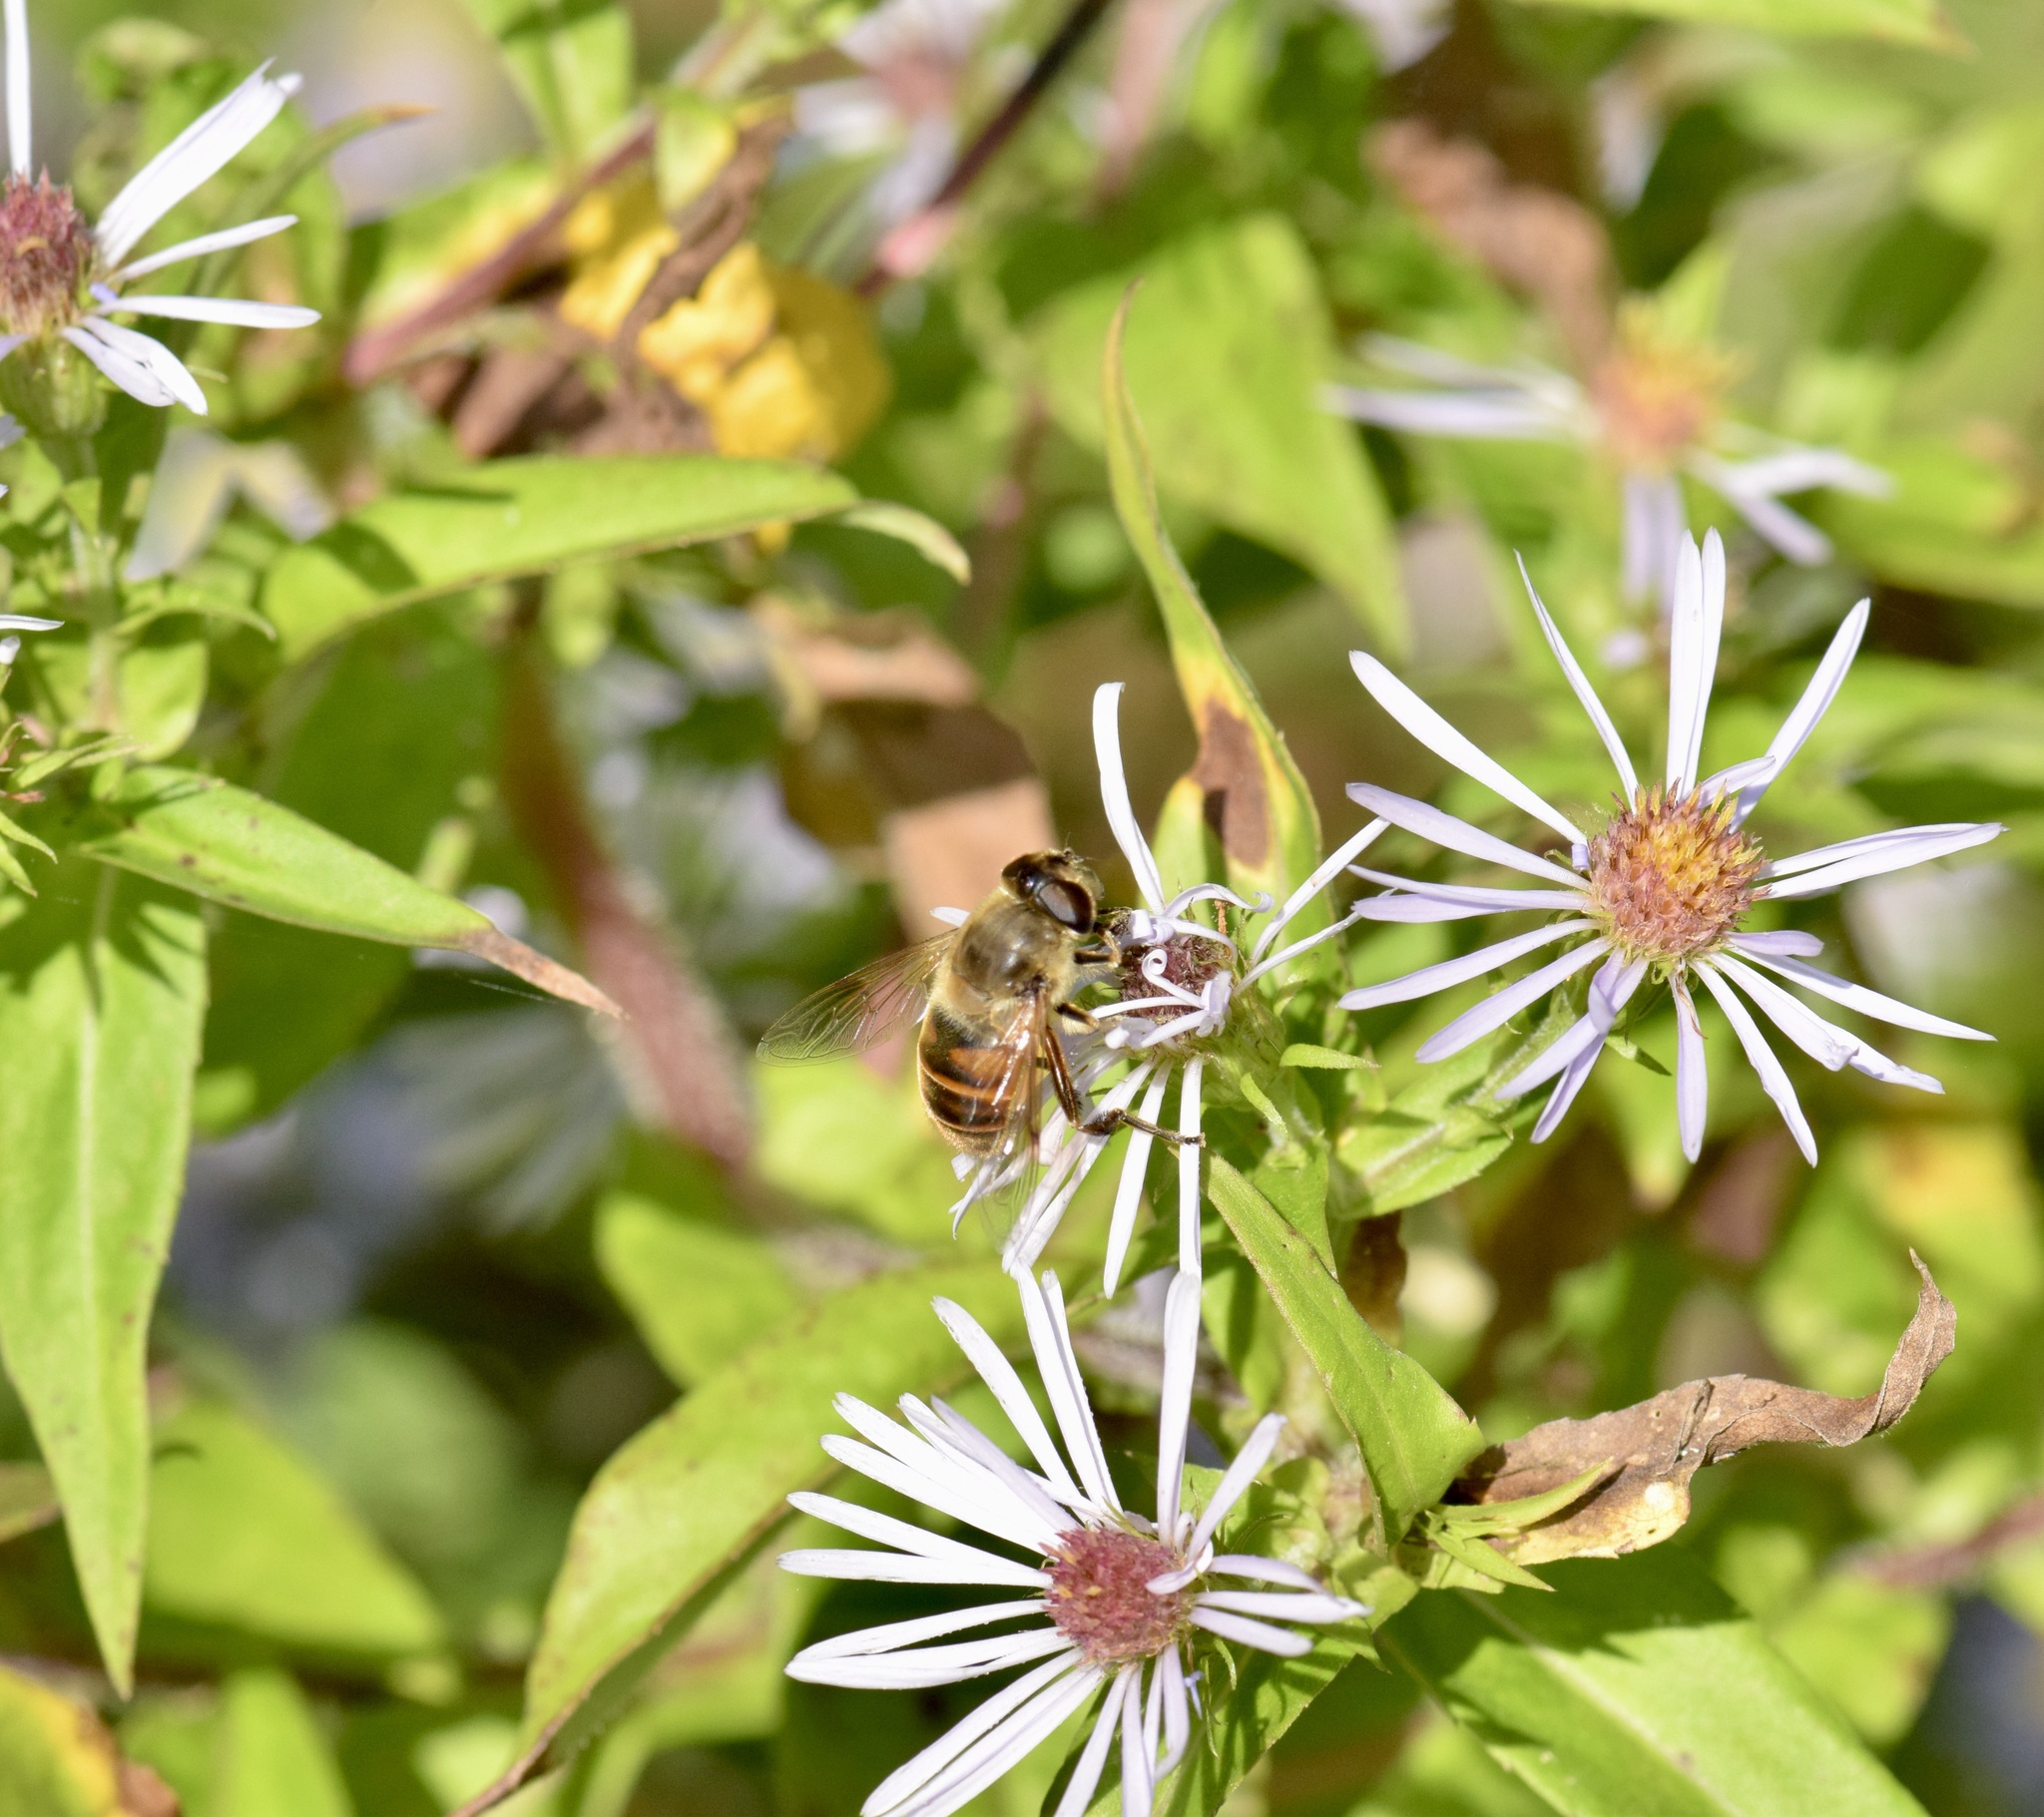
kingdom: Animalia
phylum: Arthropoda
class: Insecta
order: Diptera
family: Syrphidae
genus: Eristalis
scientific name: Eristalis tenax
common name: Drone fly
